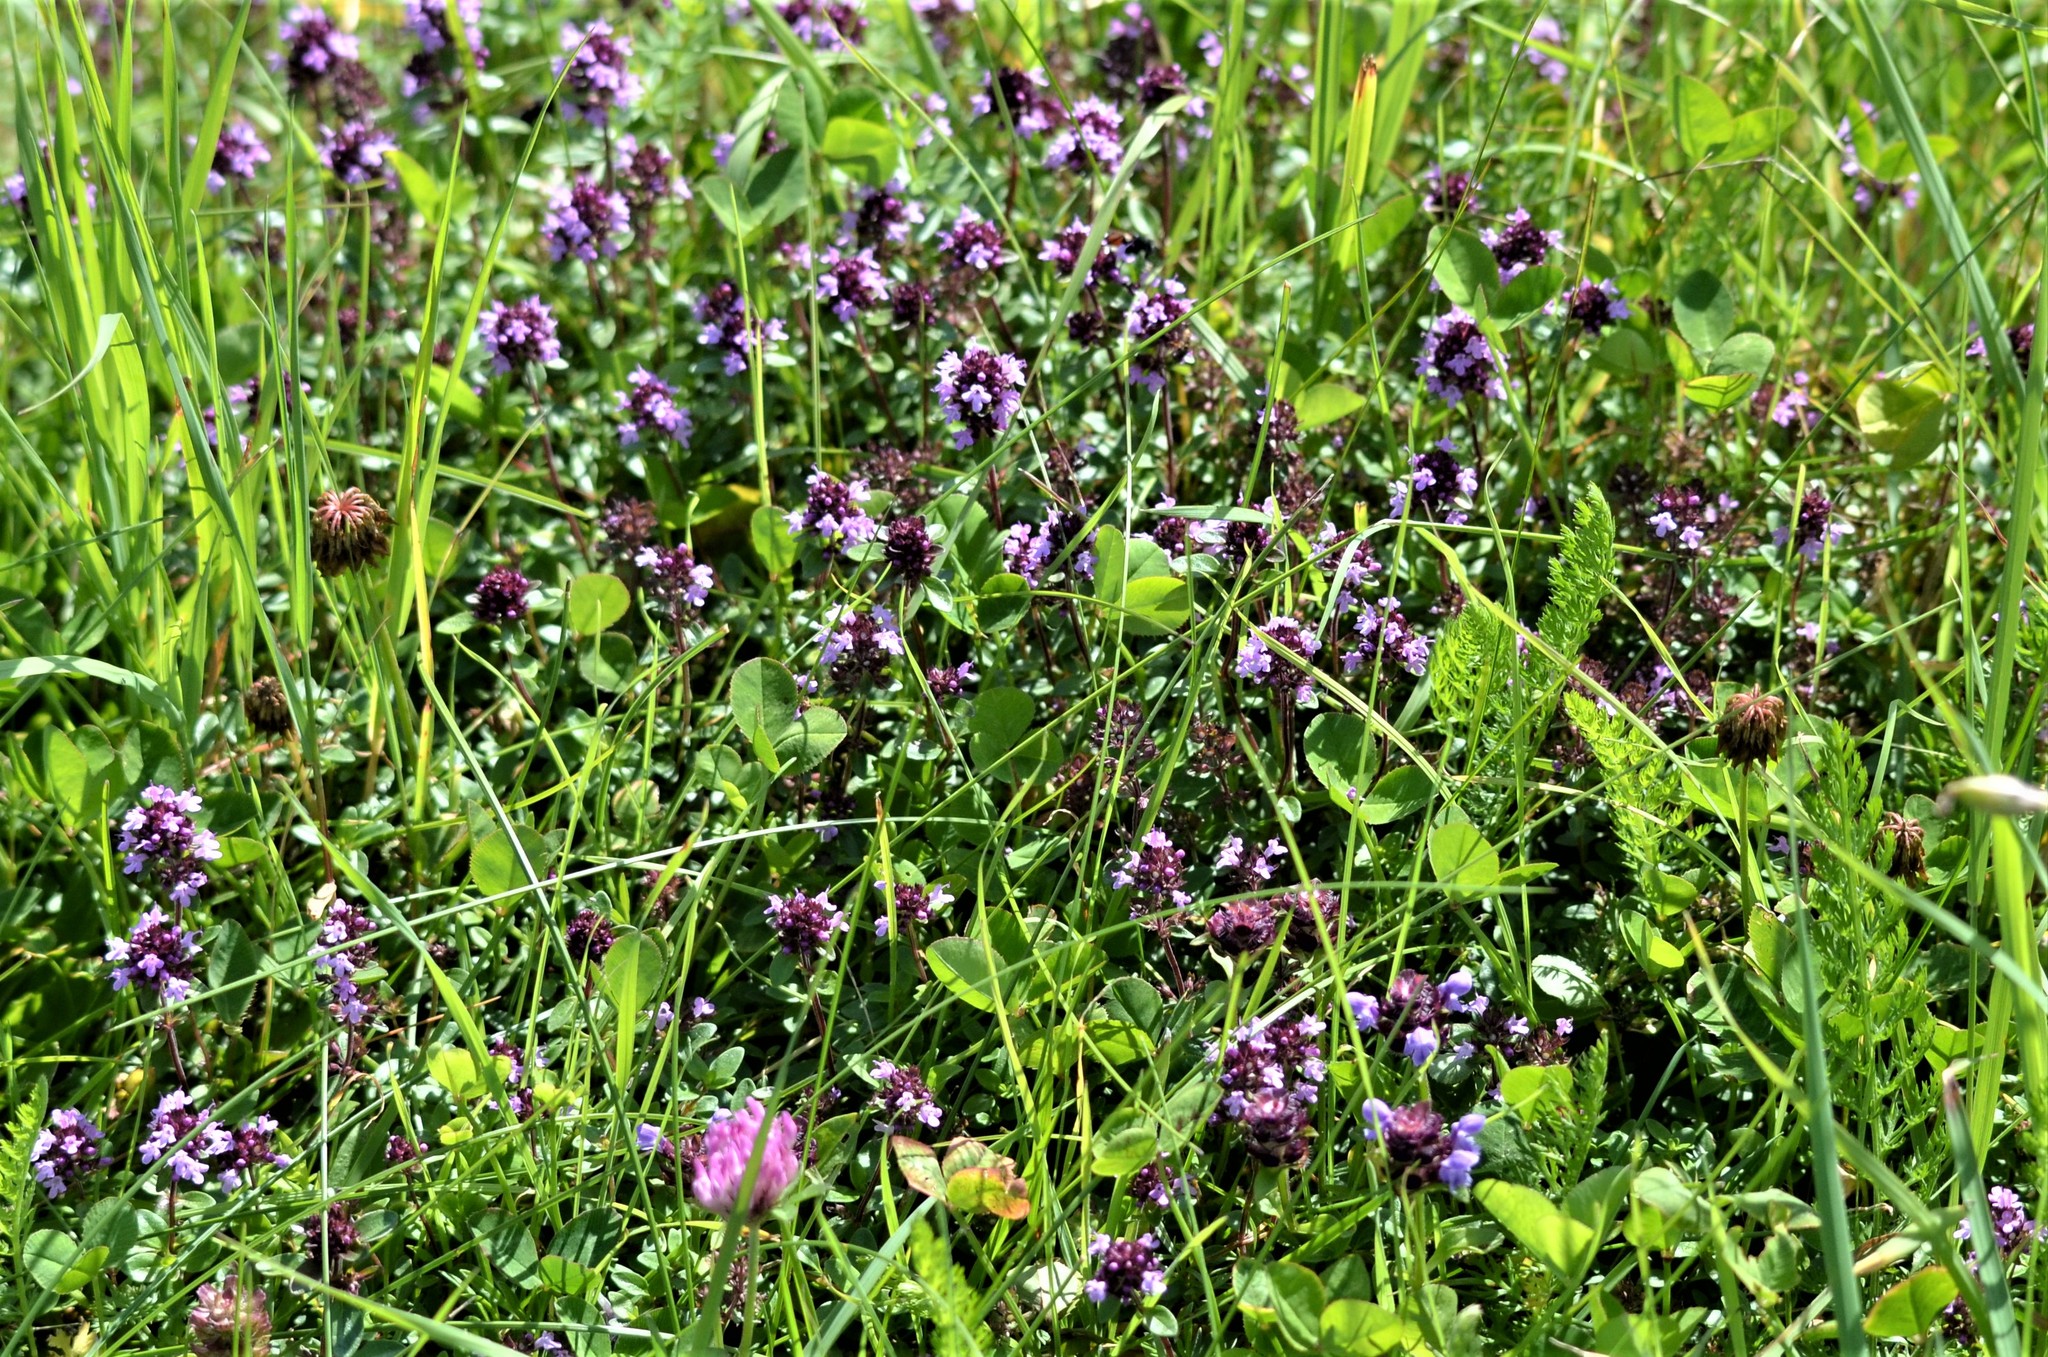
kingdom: Plantae
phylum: Tracheophyta
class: Magnoliopsida
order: Lamiales
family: Lamiaceae
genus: Thymus
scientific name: Thymus pulegioides
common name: Large thyme
